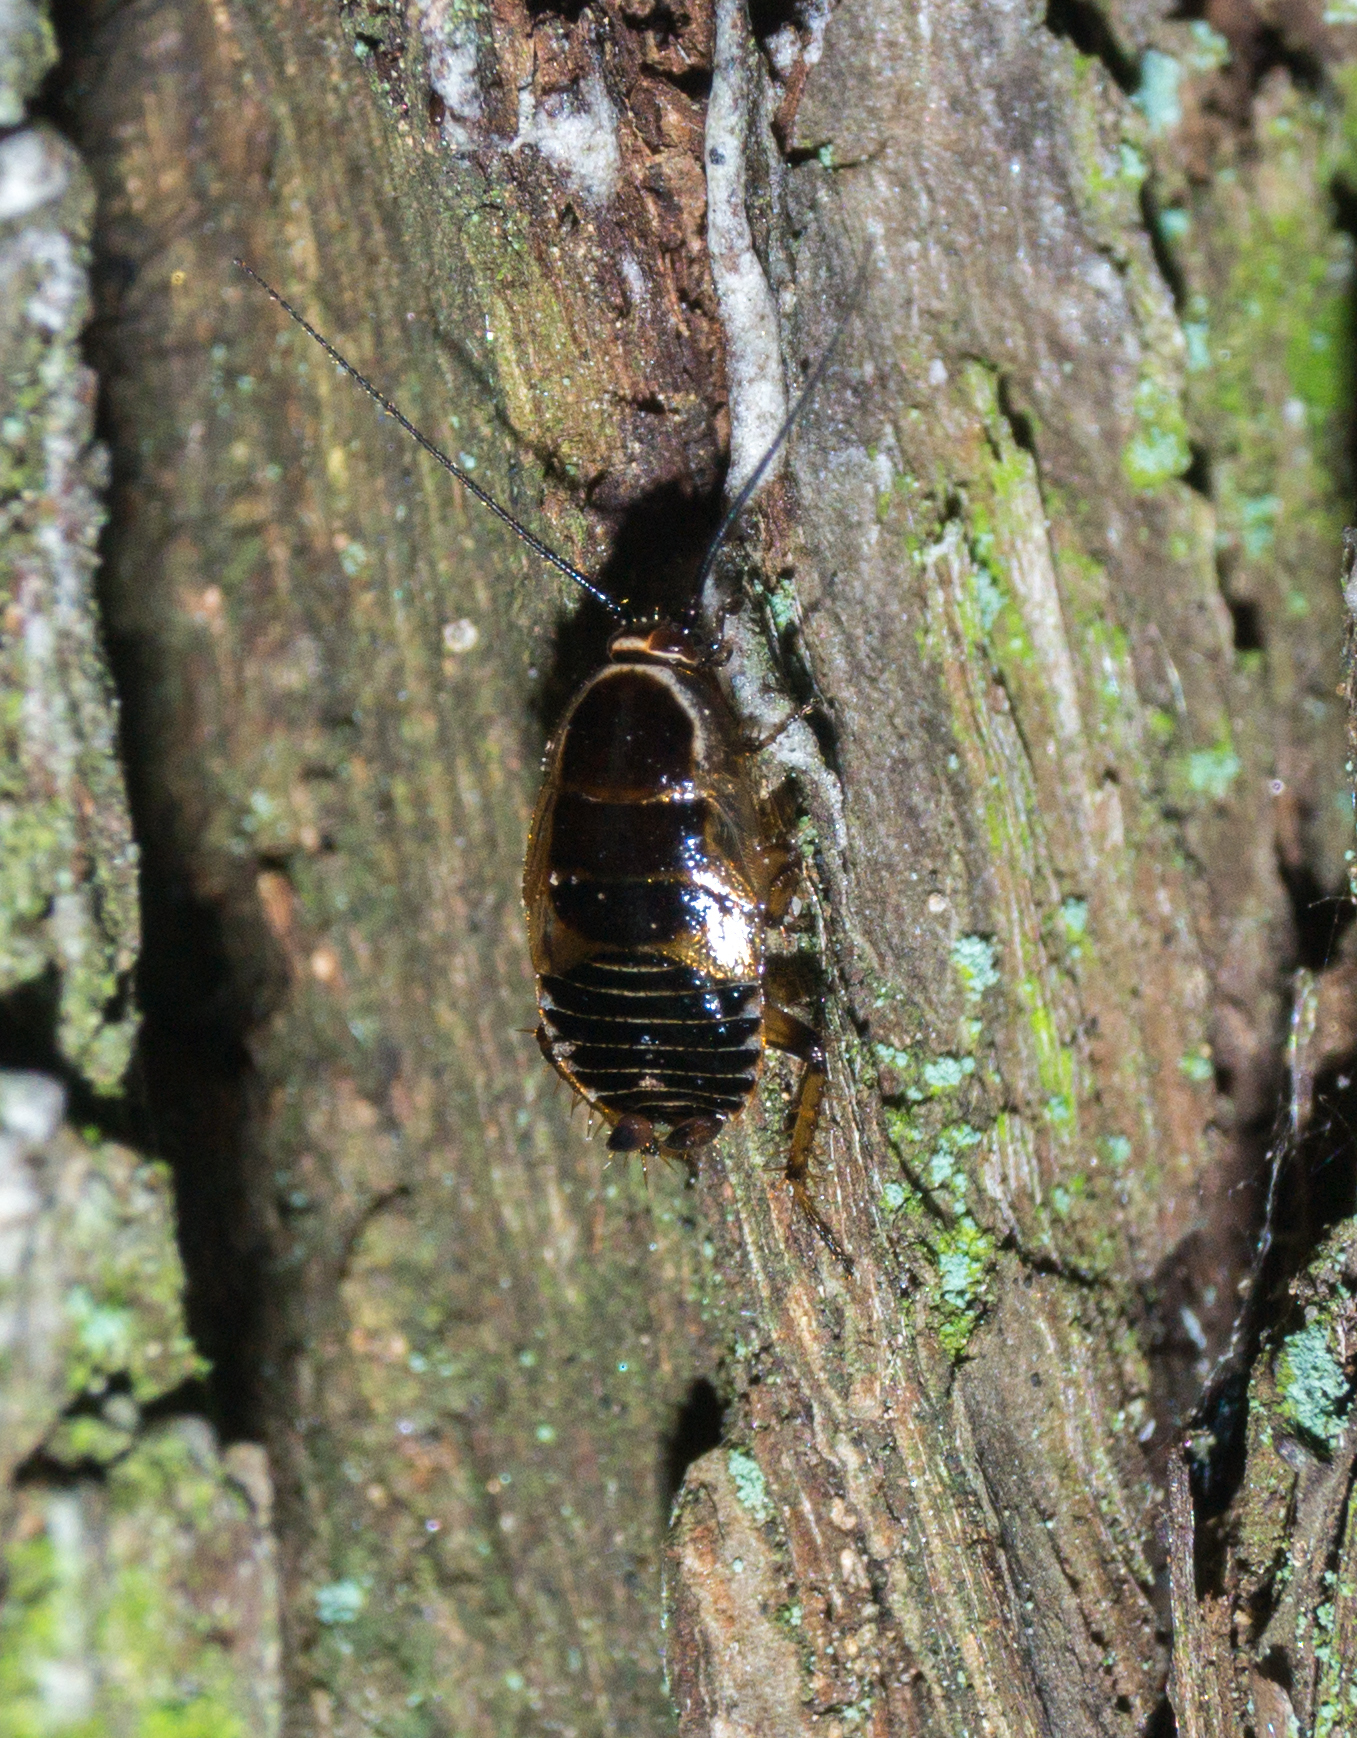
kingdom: Animalia
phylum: Arthropoda
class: Insecta
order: Blattodea
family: Ectobiidae
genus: Ectobius
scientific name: Ectobius sylvestris
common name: Forest cockroach
